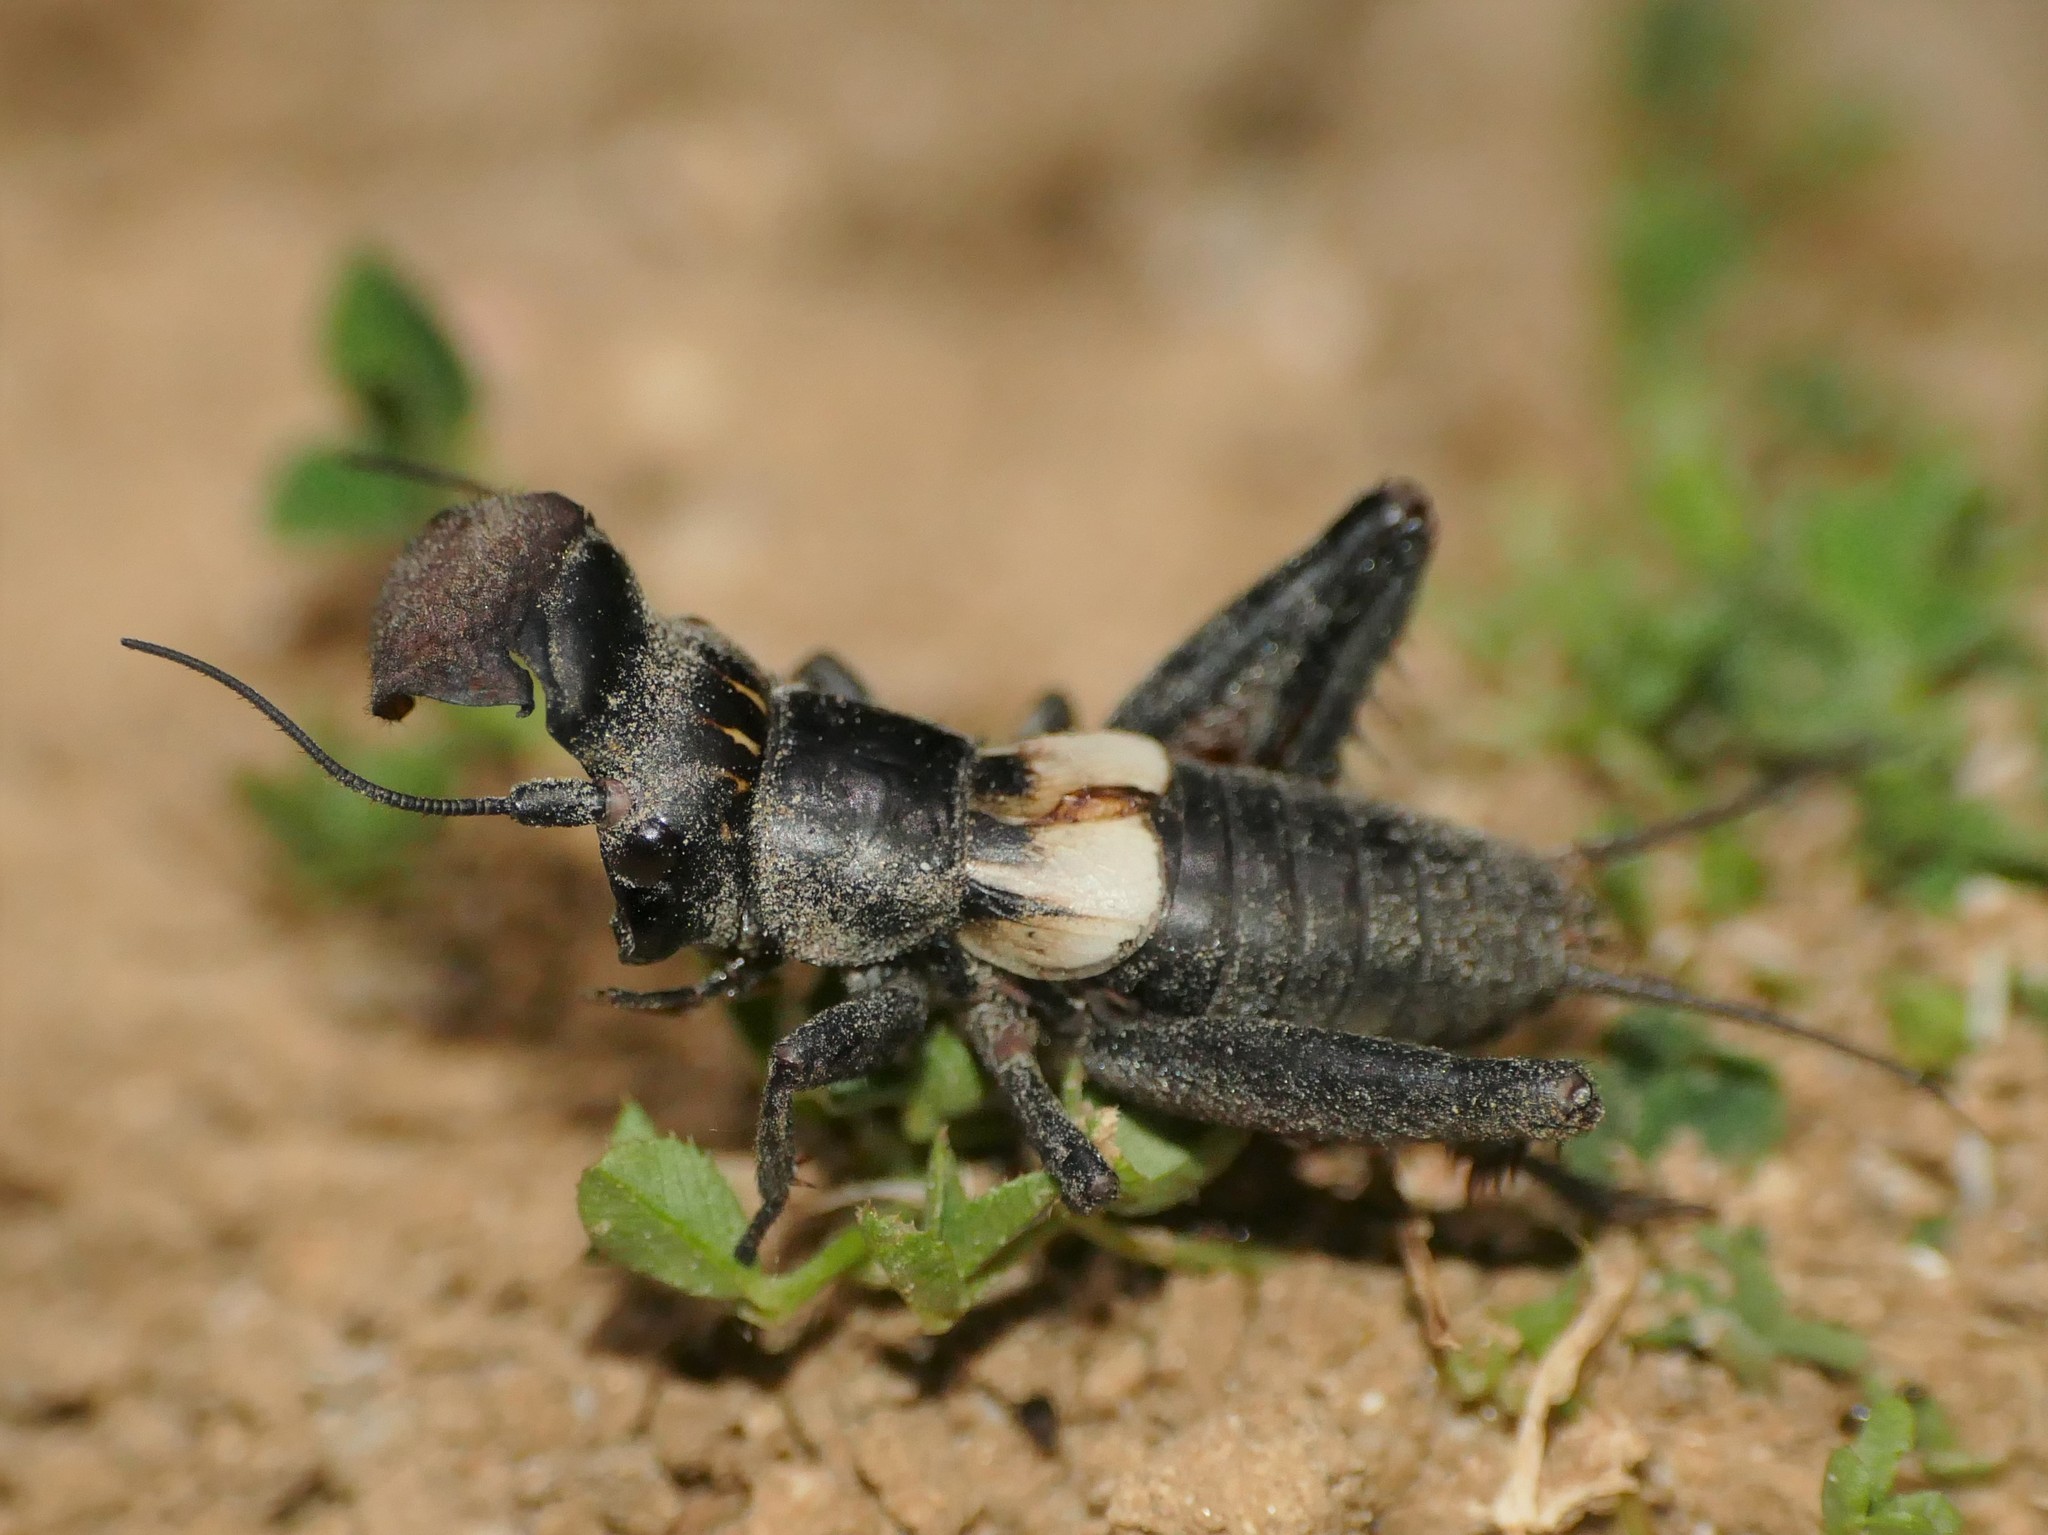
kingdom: Animalia
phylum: Arthropoda
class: Insecta
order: Orthoptera
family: Gryllidae
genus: Sciobia
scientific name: Sciobia lusitanica
